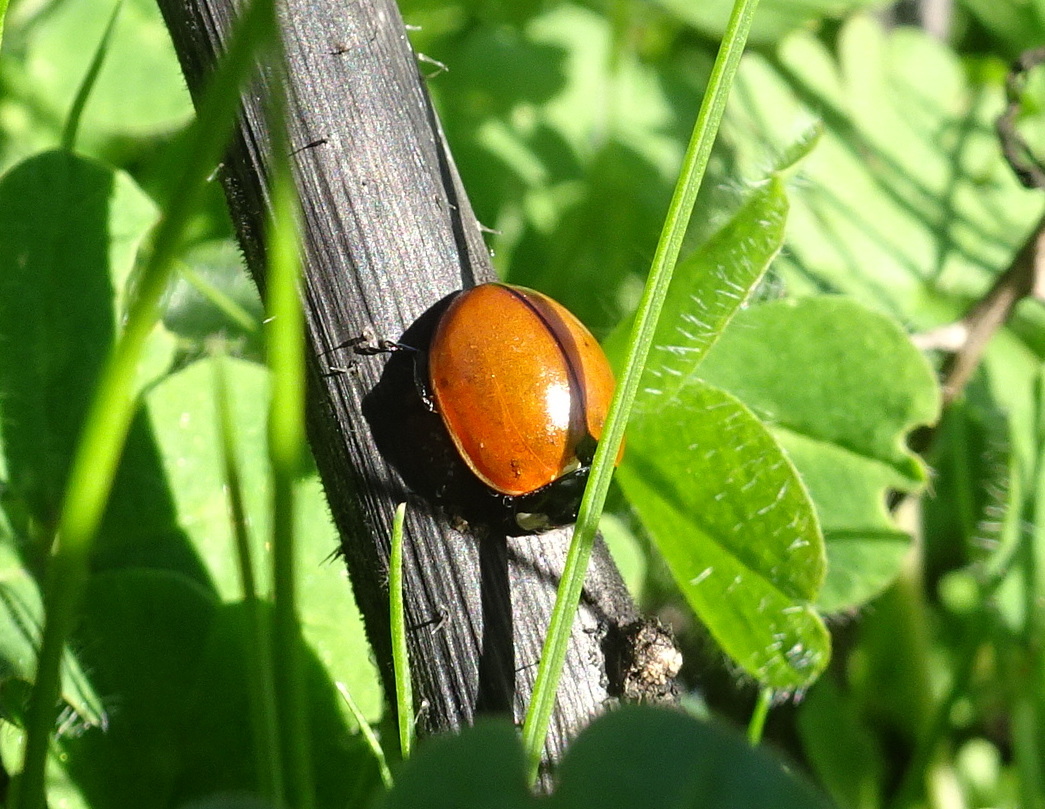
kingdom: Animalia
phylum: Arthropoda
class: Insecta
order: Coleoptera
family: Coccinellidae
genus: Coccinella
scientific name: Coccinella californica
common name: Lady beetle
